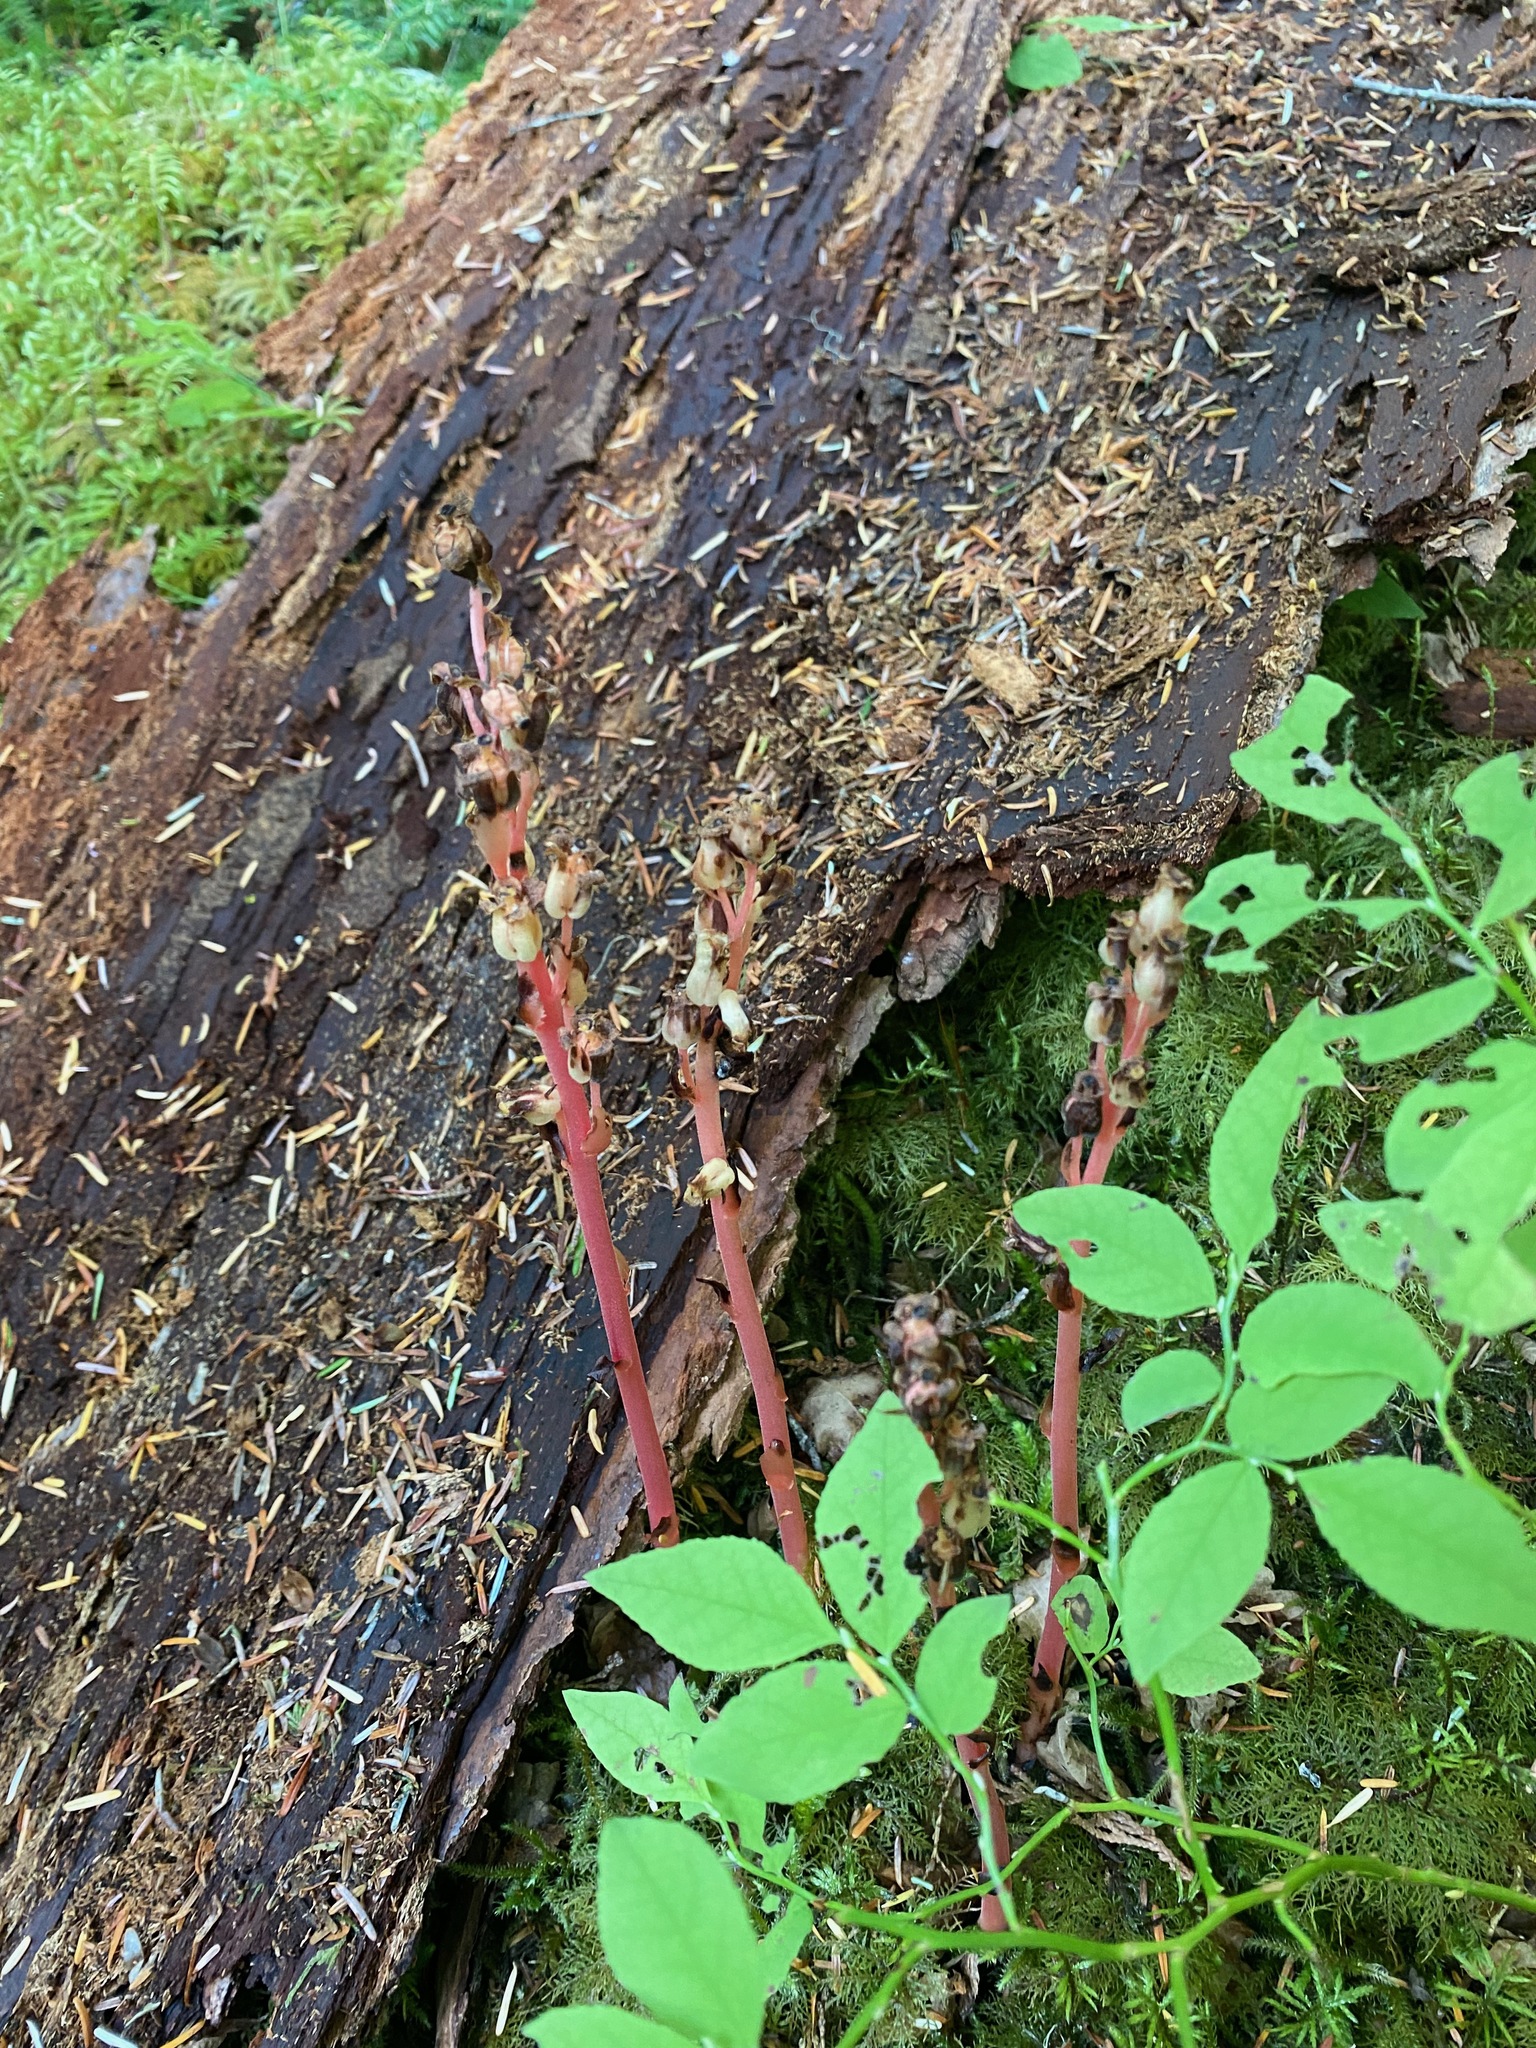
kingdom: Plantae
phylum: Tracheophyta
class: Magnoliopsida
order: Ericales
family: Ericaceae
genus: Hypopitys
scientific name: Hypopitys monotropa
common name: Yellow bird's-nest
